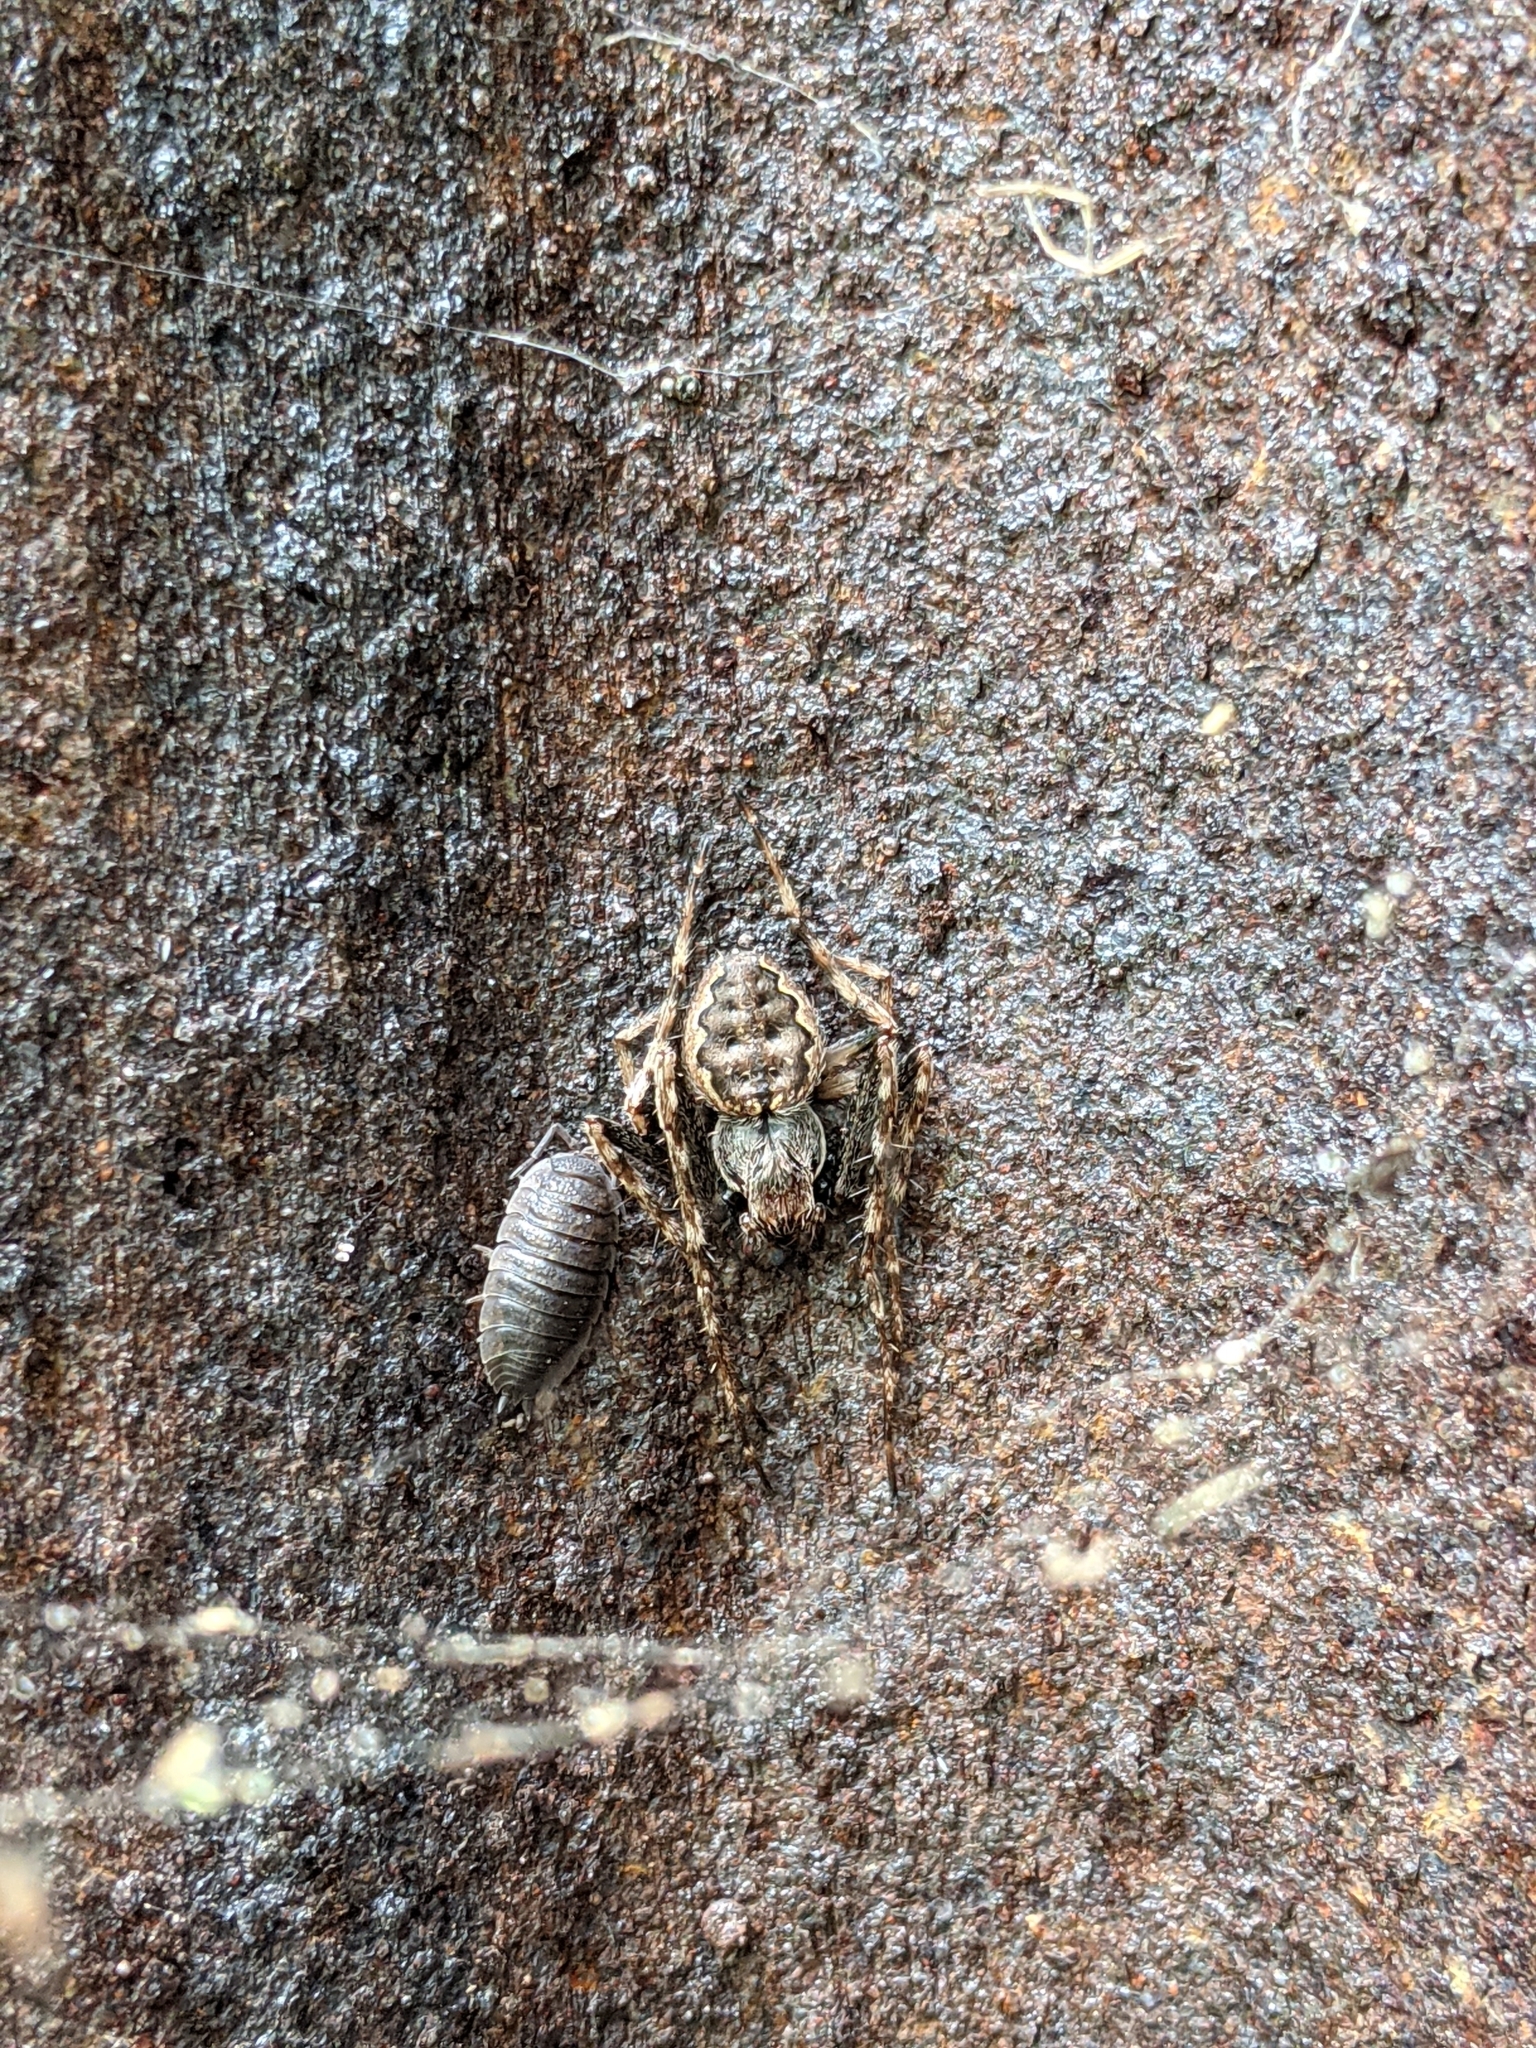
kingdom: Animalia
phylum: Arthropoda
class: Arachnida
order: Araneae
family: Araneidae
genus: Nuctenea
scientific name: Nuctenea umbratica
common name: Toad spider
